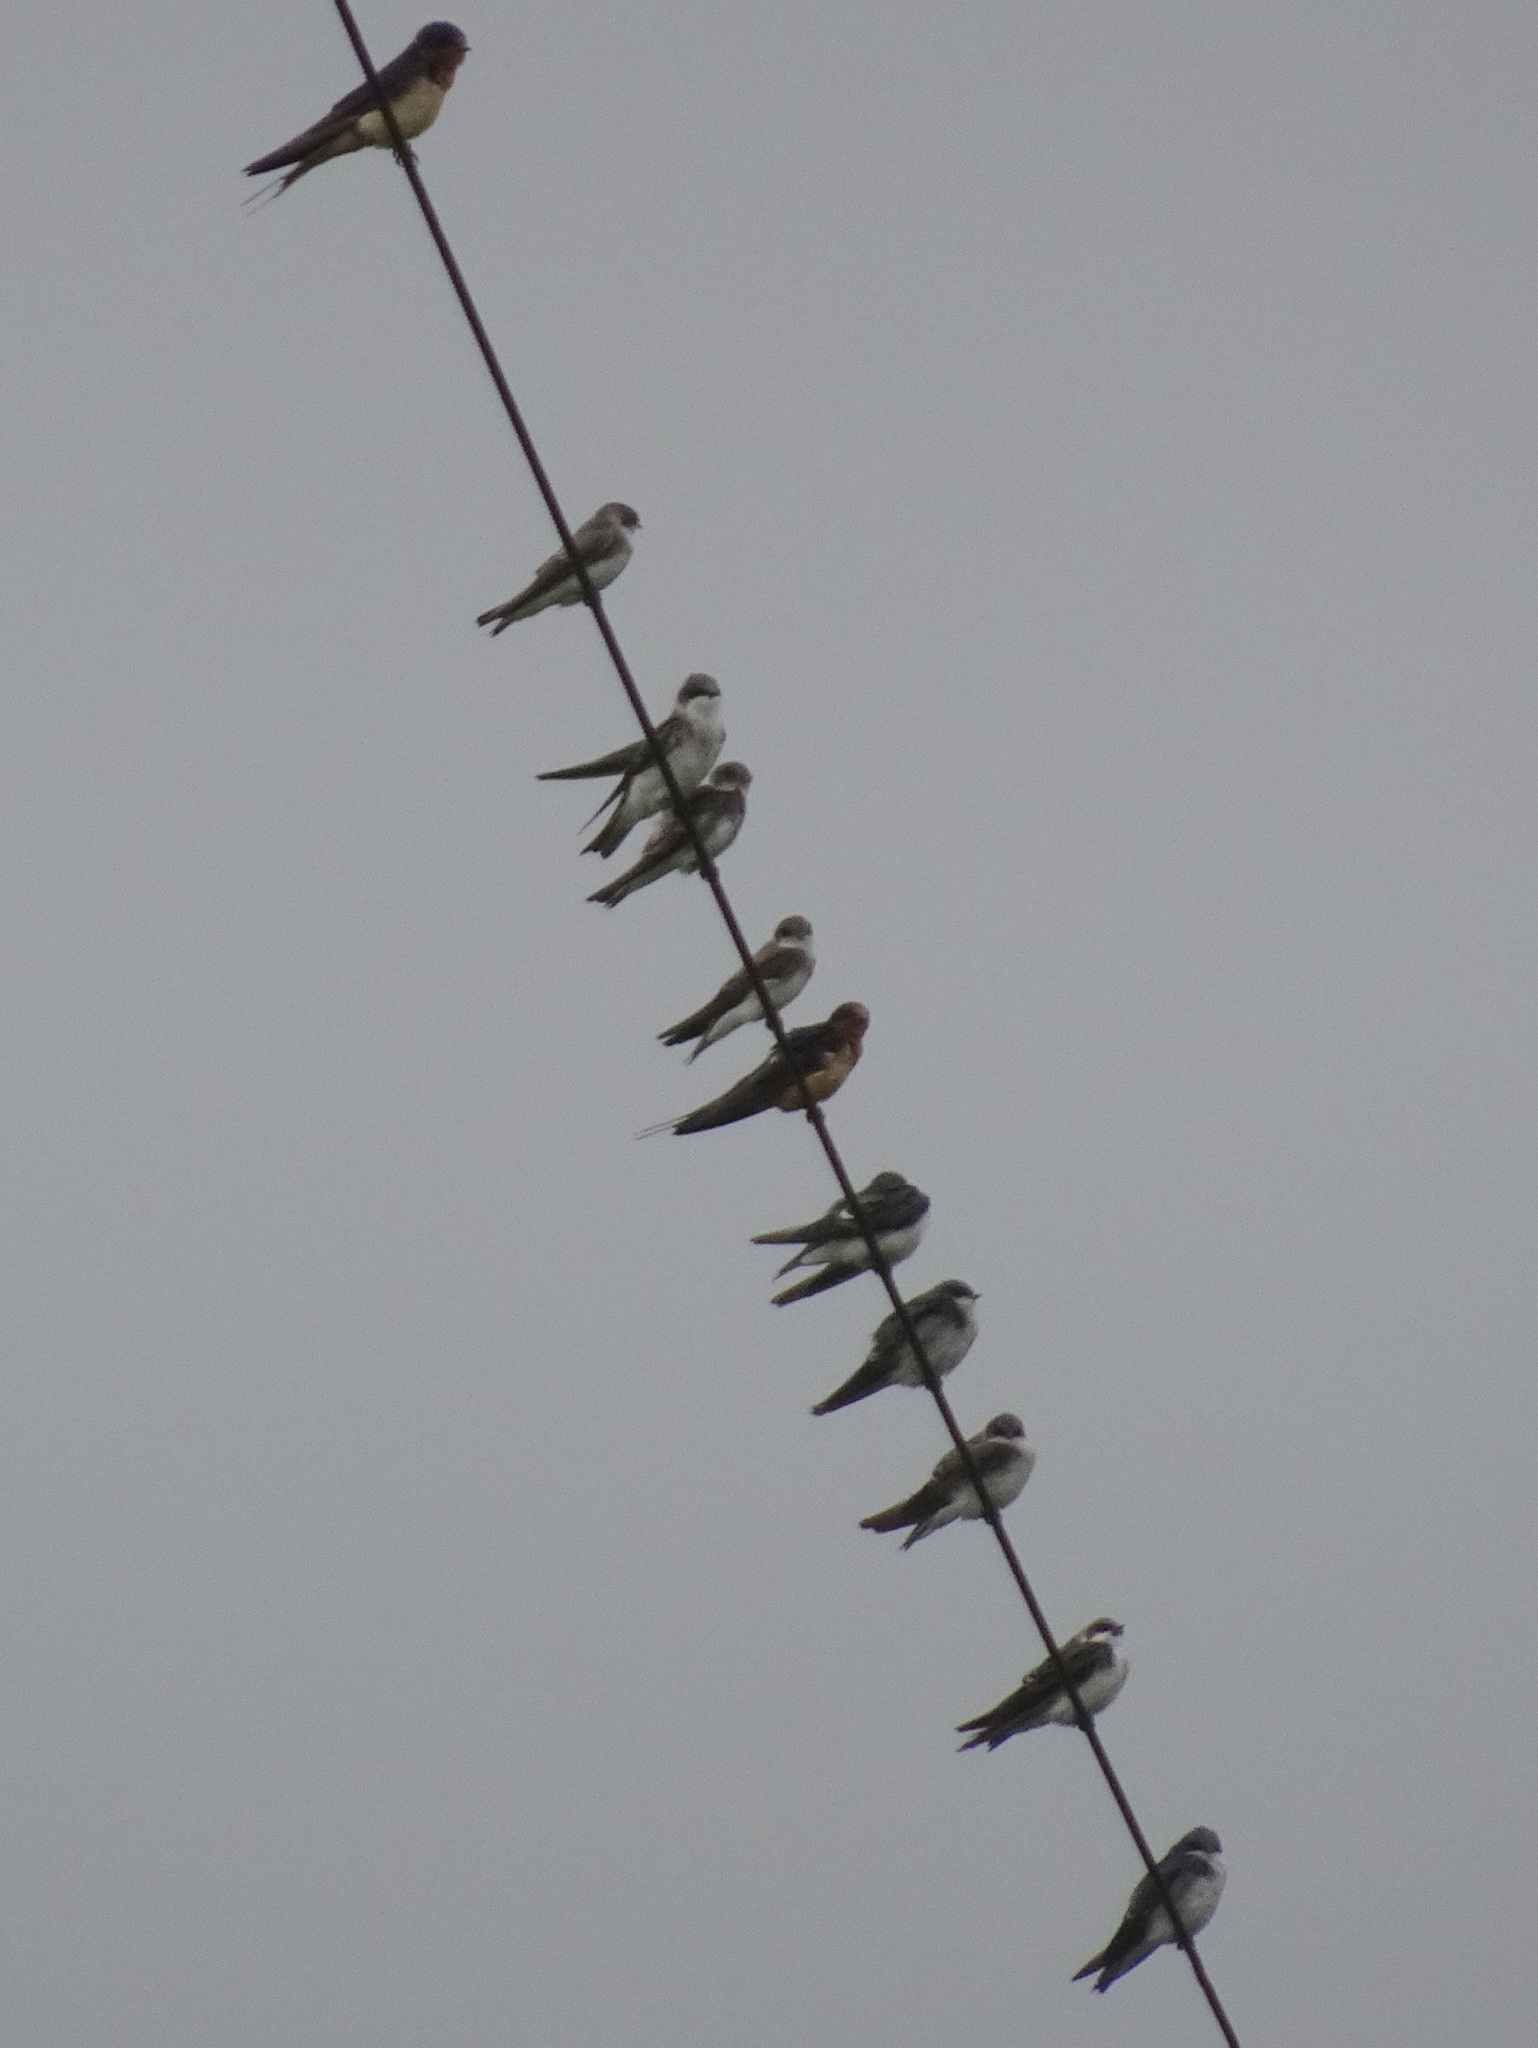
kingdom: Animalia
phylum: Chordata
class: Aves
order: Passeriformes
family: Hirundinidae
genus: Riparia
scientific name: Riparia riparia
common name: Sand martin
